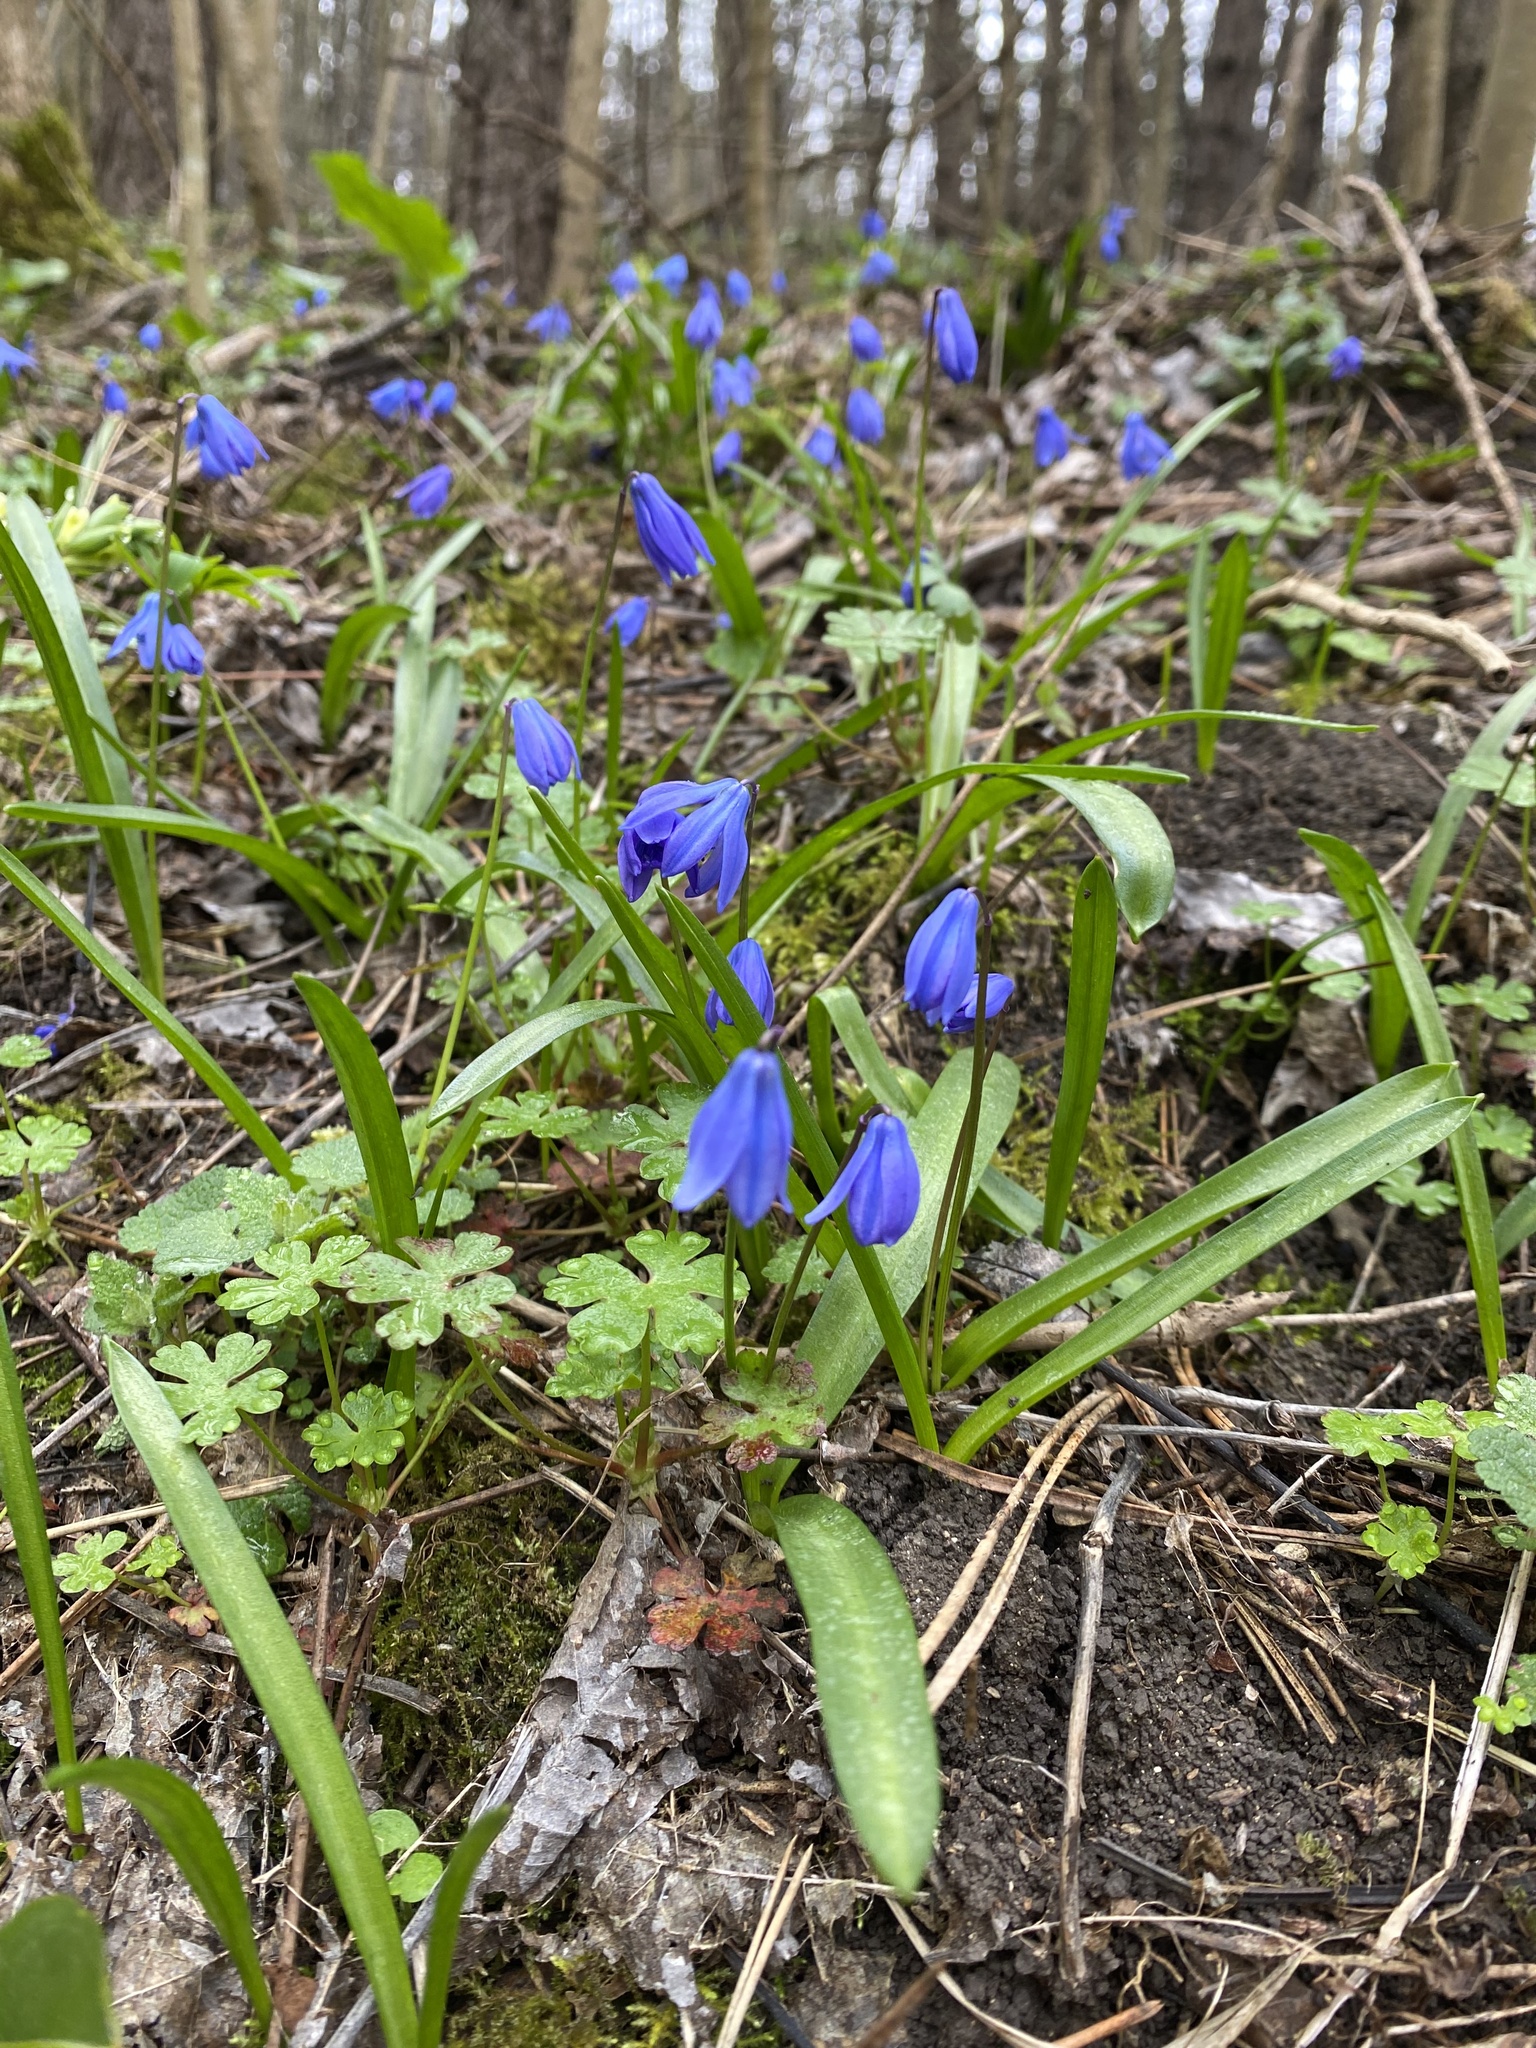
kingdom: Plantae
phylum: Tracheophyta
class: Liliopsida
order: Asparagales
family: Asparagaceae
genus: Scilla
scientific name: Scilla siberica
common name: Siberian squill
